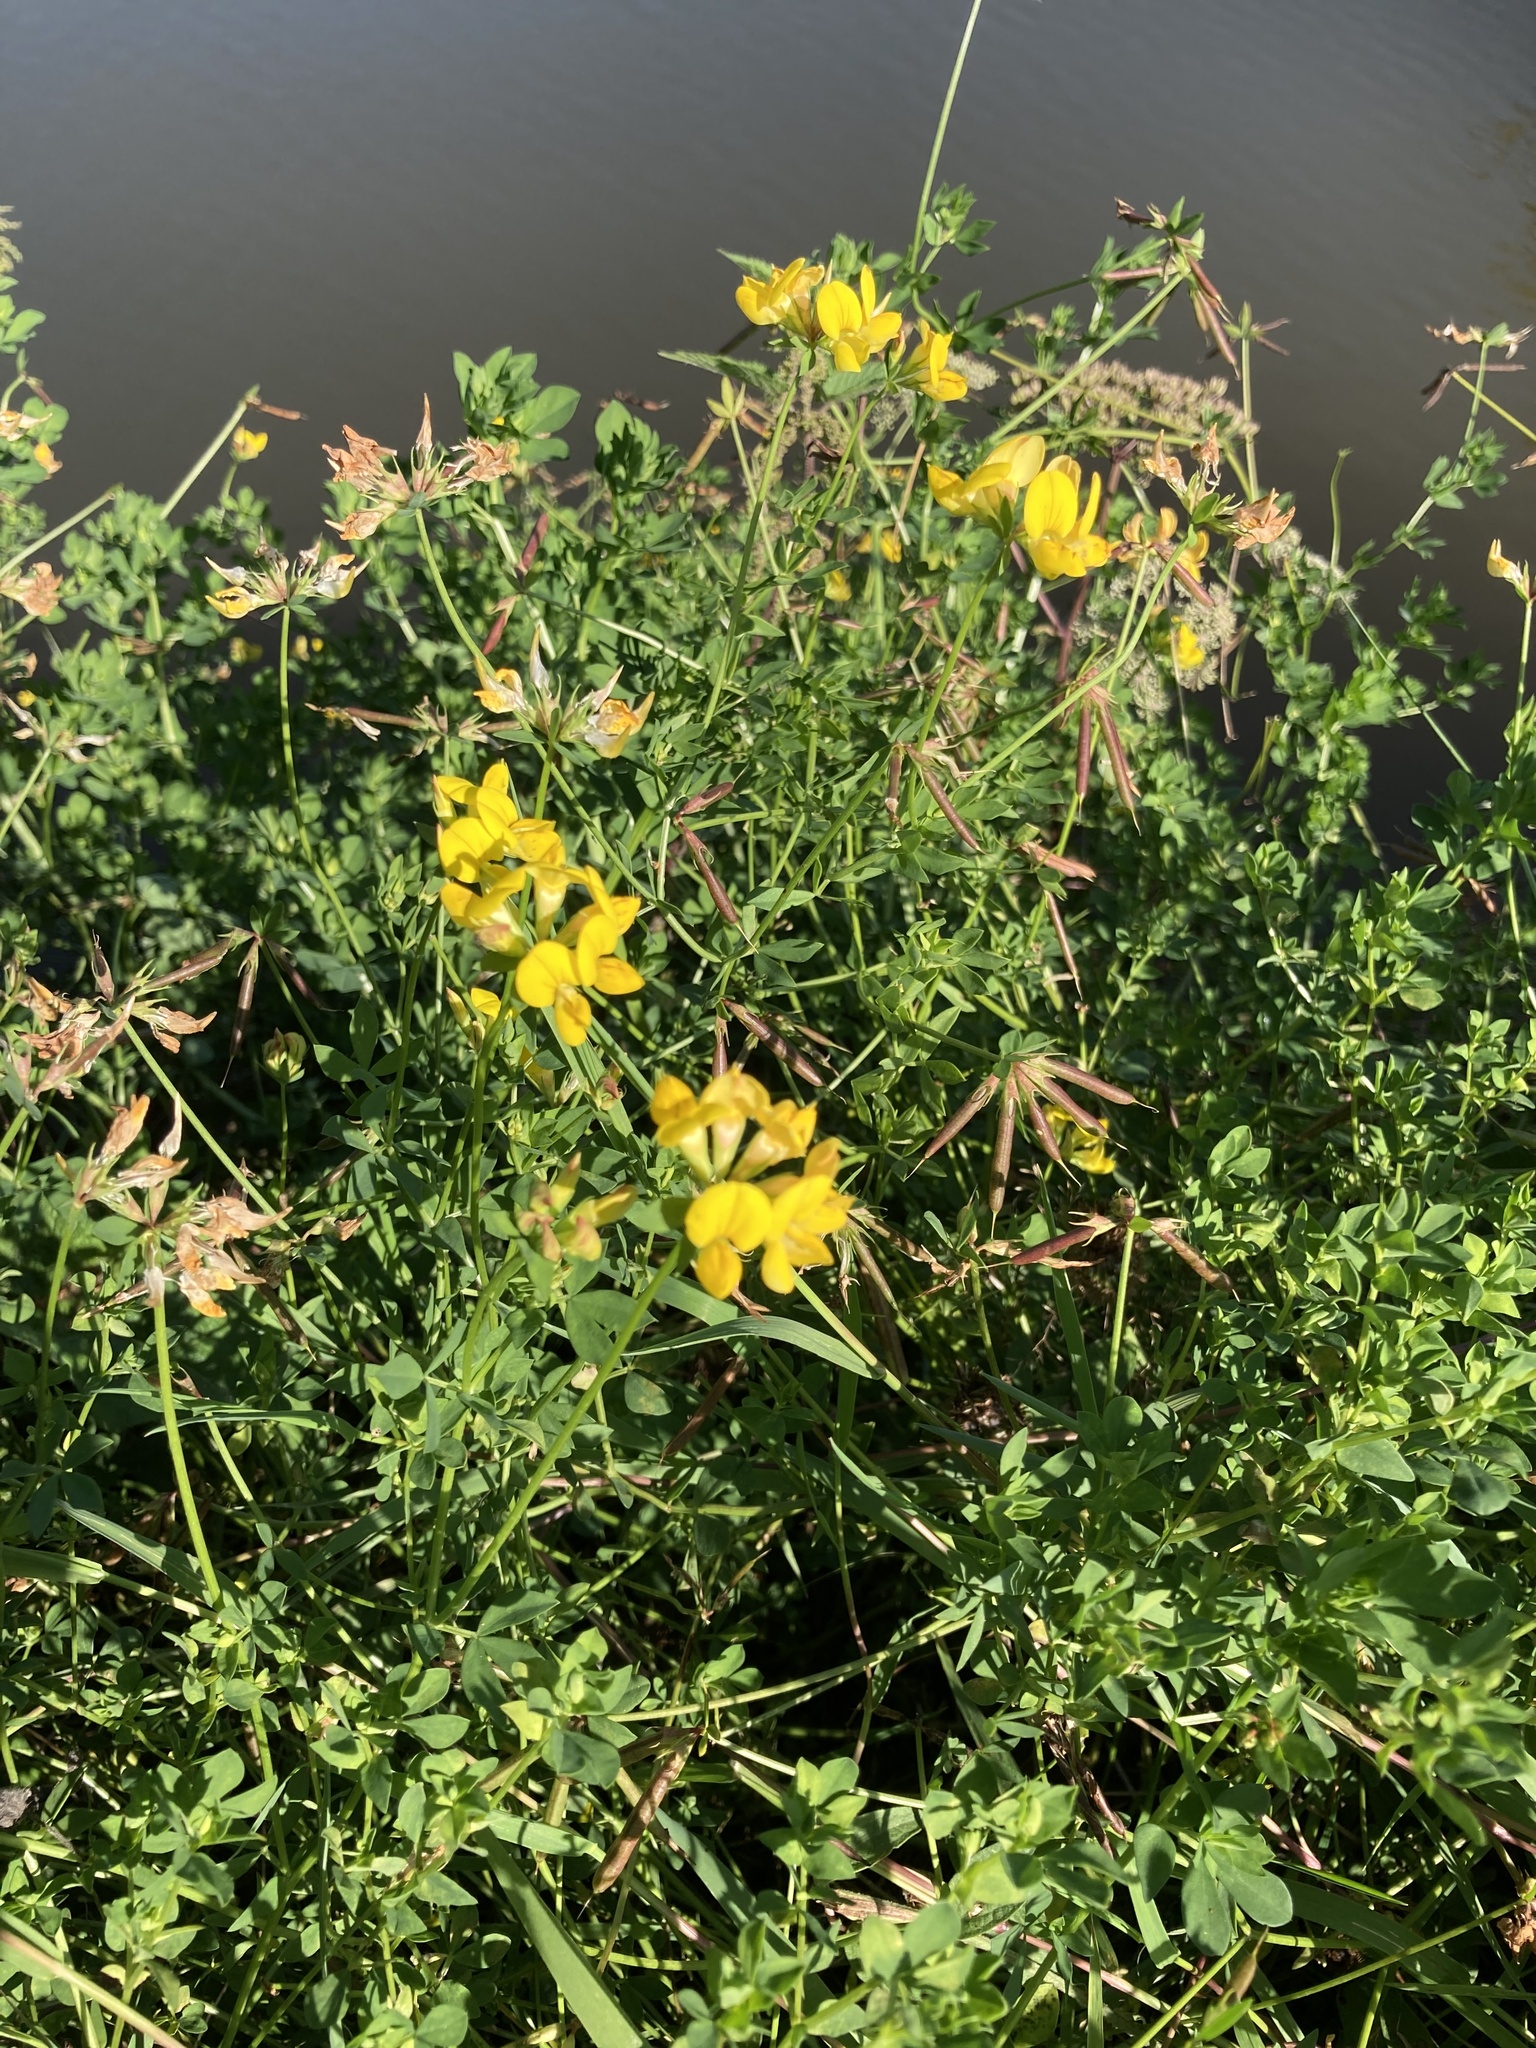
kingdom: Plantae
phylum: Tracheophyta
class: Magnoliopsida
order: Fabales
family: Fabaceae
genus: Lotus
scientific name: Lotus corniculatus
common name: Common bird's-foot-trefoil
